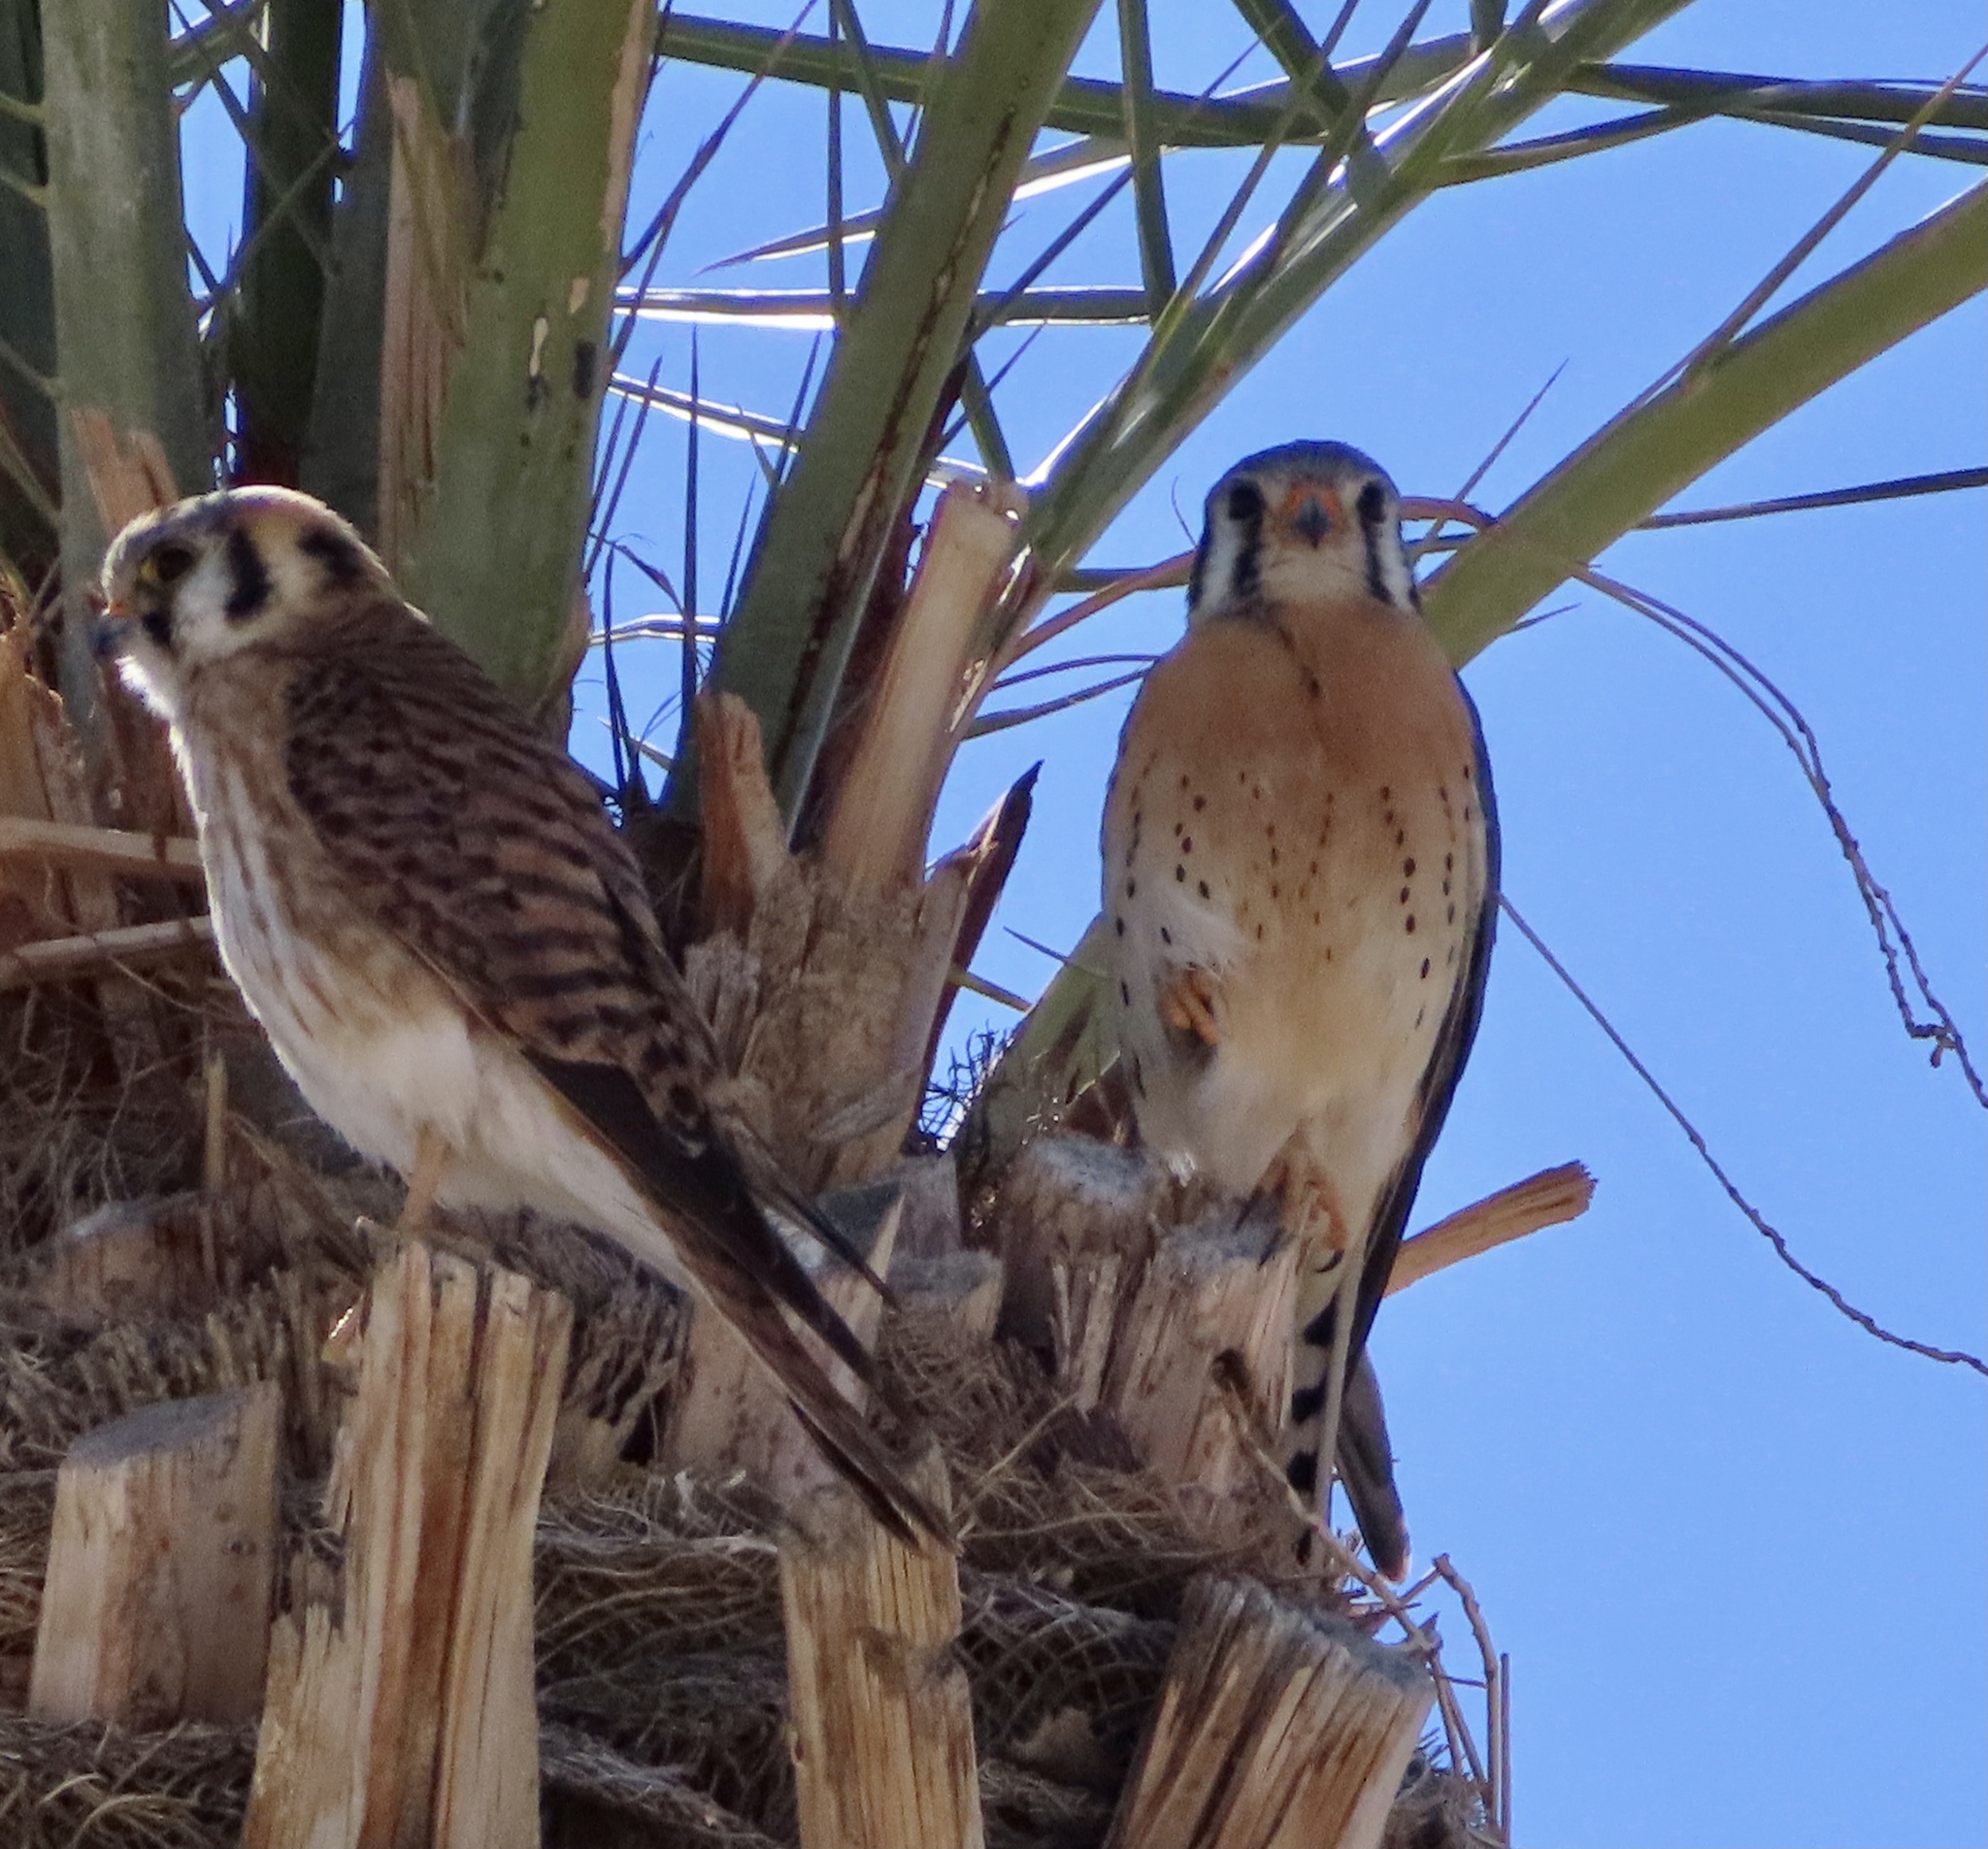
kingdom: Animalia
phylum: Chordata
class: Aves
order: Falconiformes
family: Falconidae
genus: Falco
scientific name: Falco sparverius
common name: American kestrel
